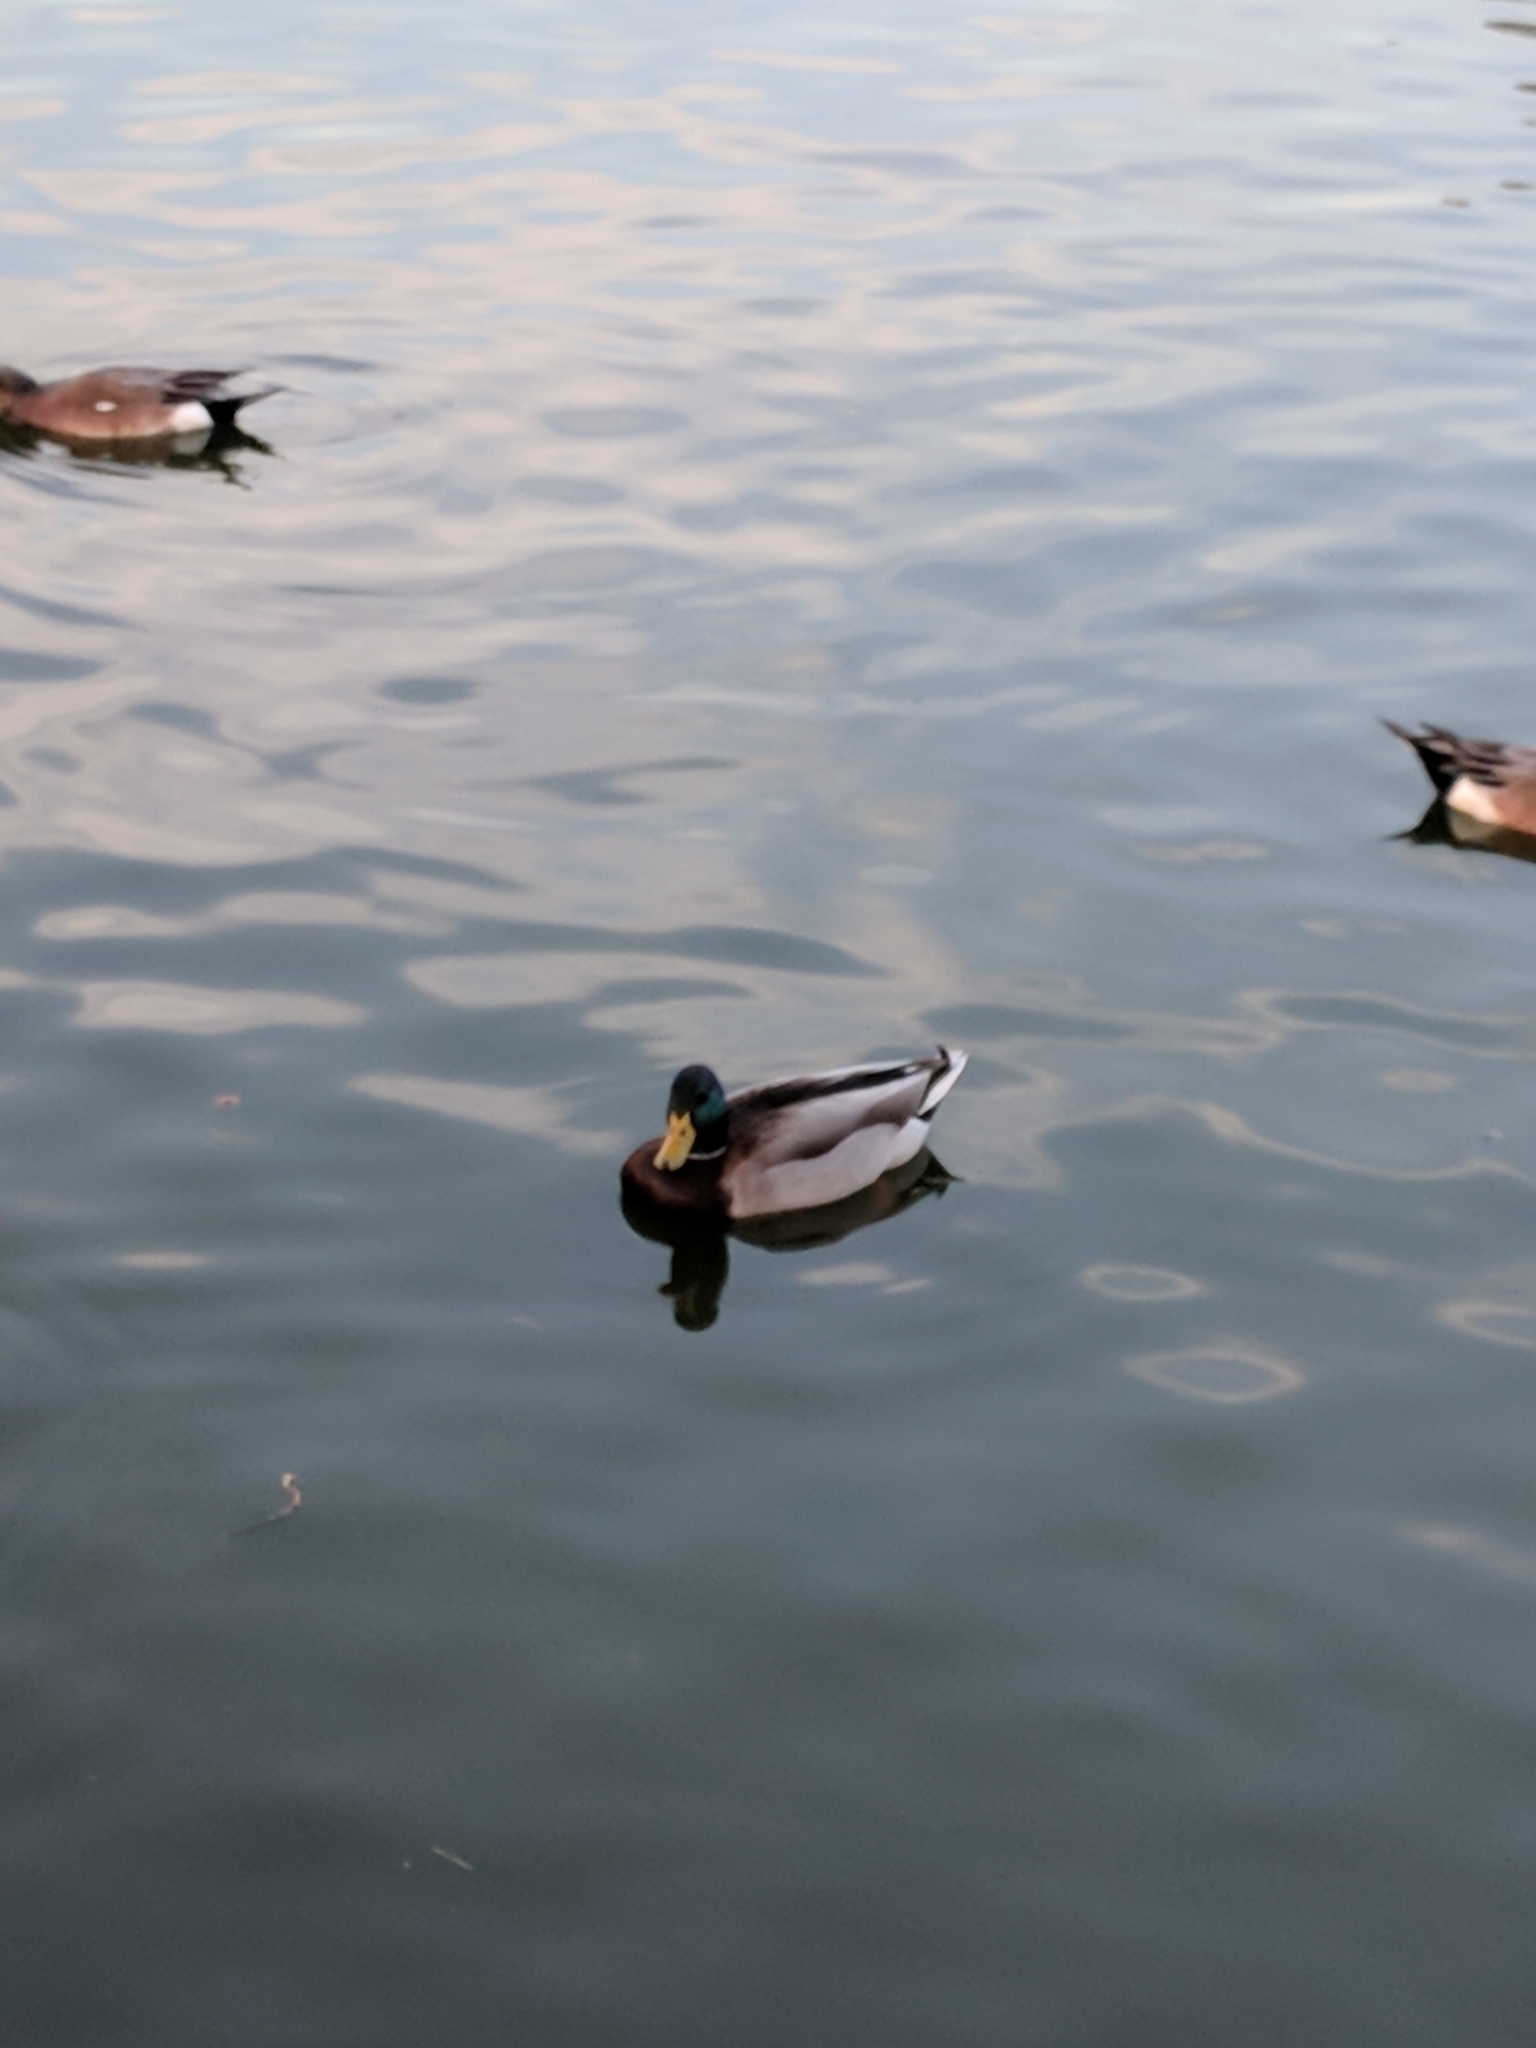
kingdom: Animalia
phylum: Chordata
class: Aves
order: Anseriformes
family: Anatidae
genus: Anas
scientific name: Anas platyrhynchos
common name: Mallard
